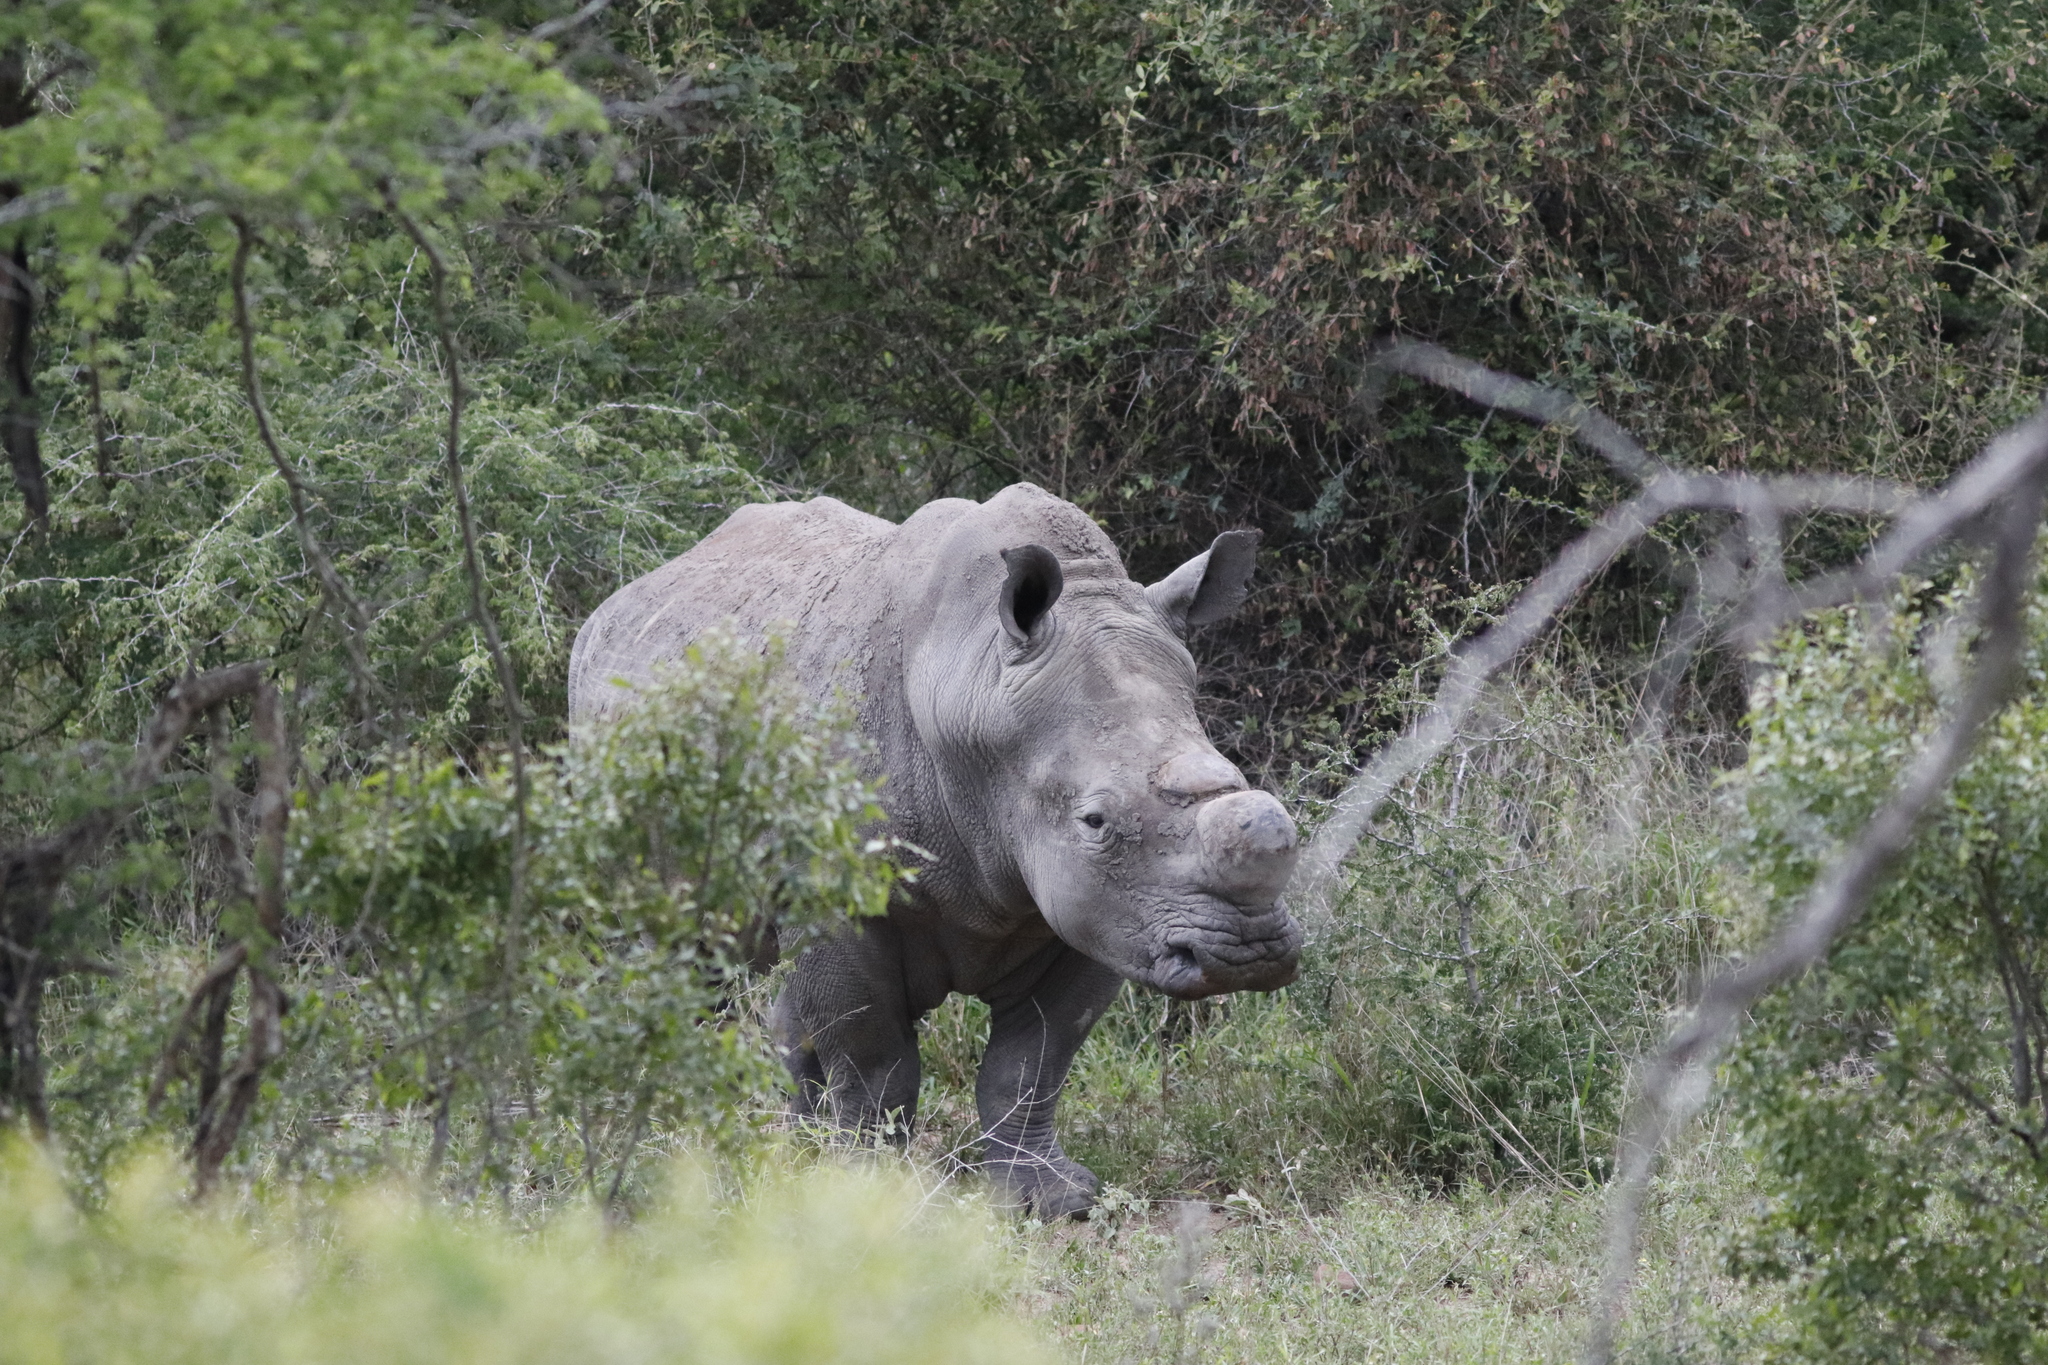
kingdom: Animalia
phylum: Chordata
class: Mammalia
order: Perissodactyla
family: Rhinocerotidae
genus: Ceratotherium
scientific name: Ceratotherium simum
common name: White rhinoceros
